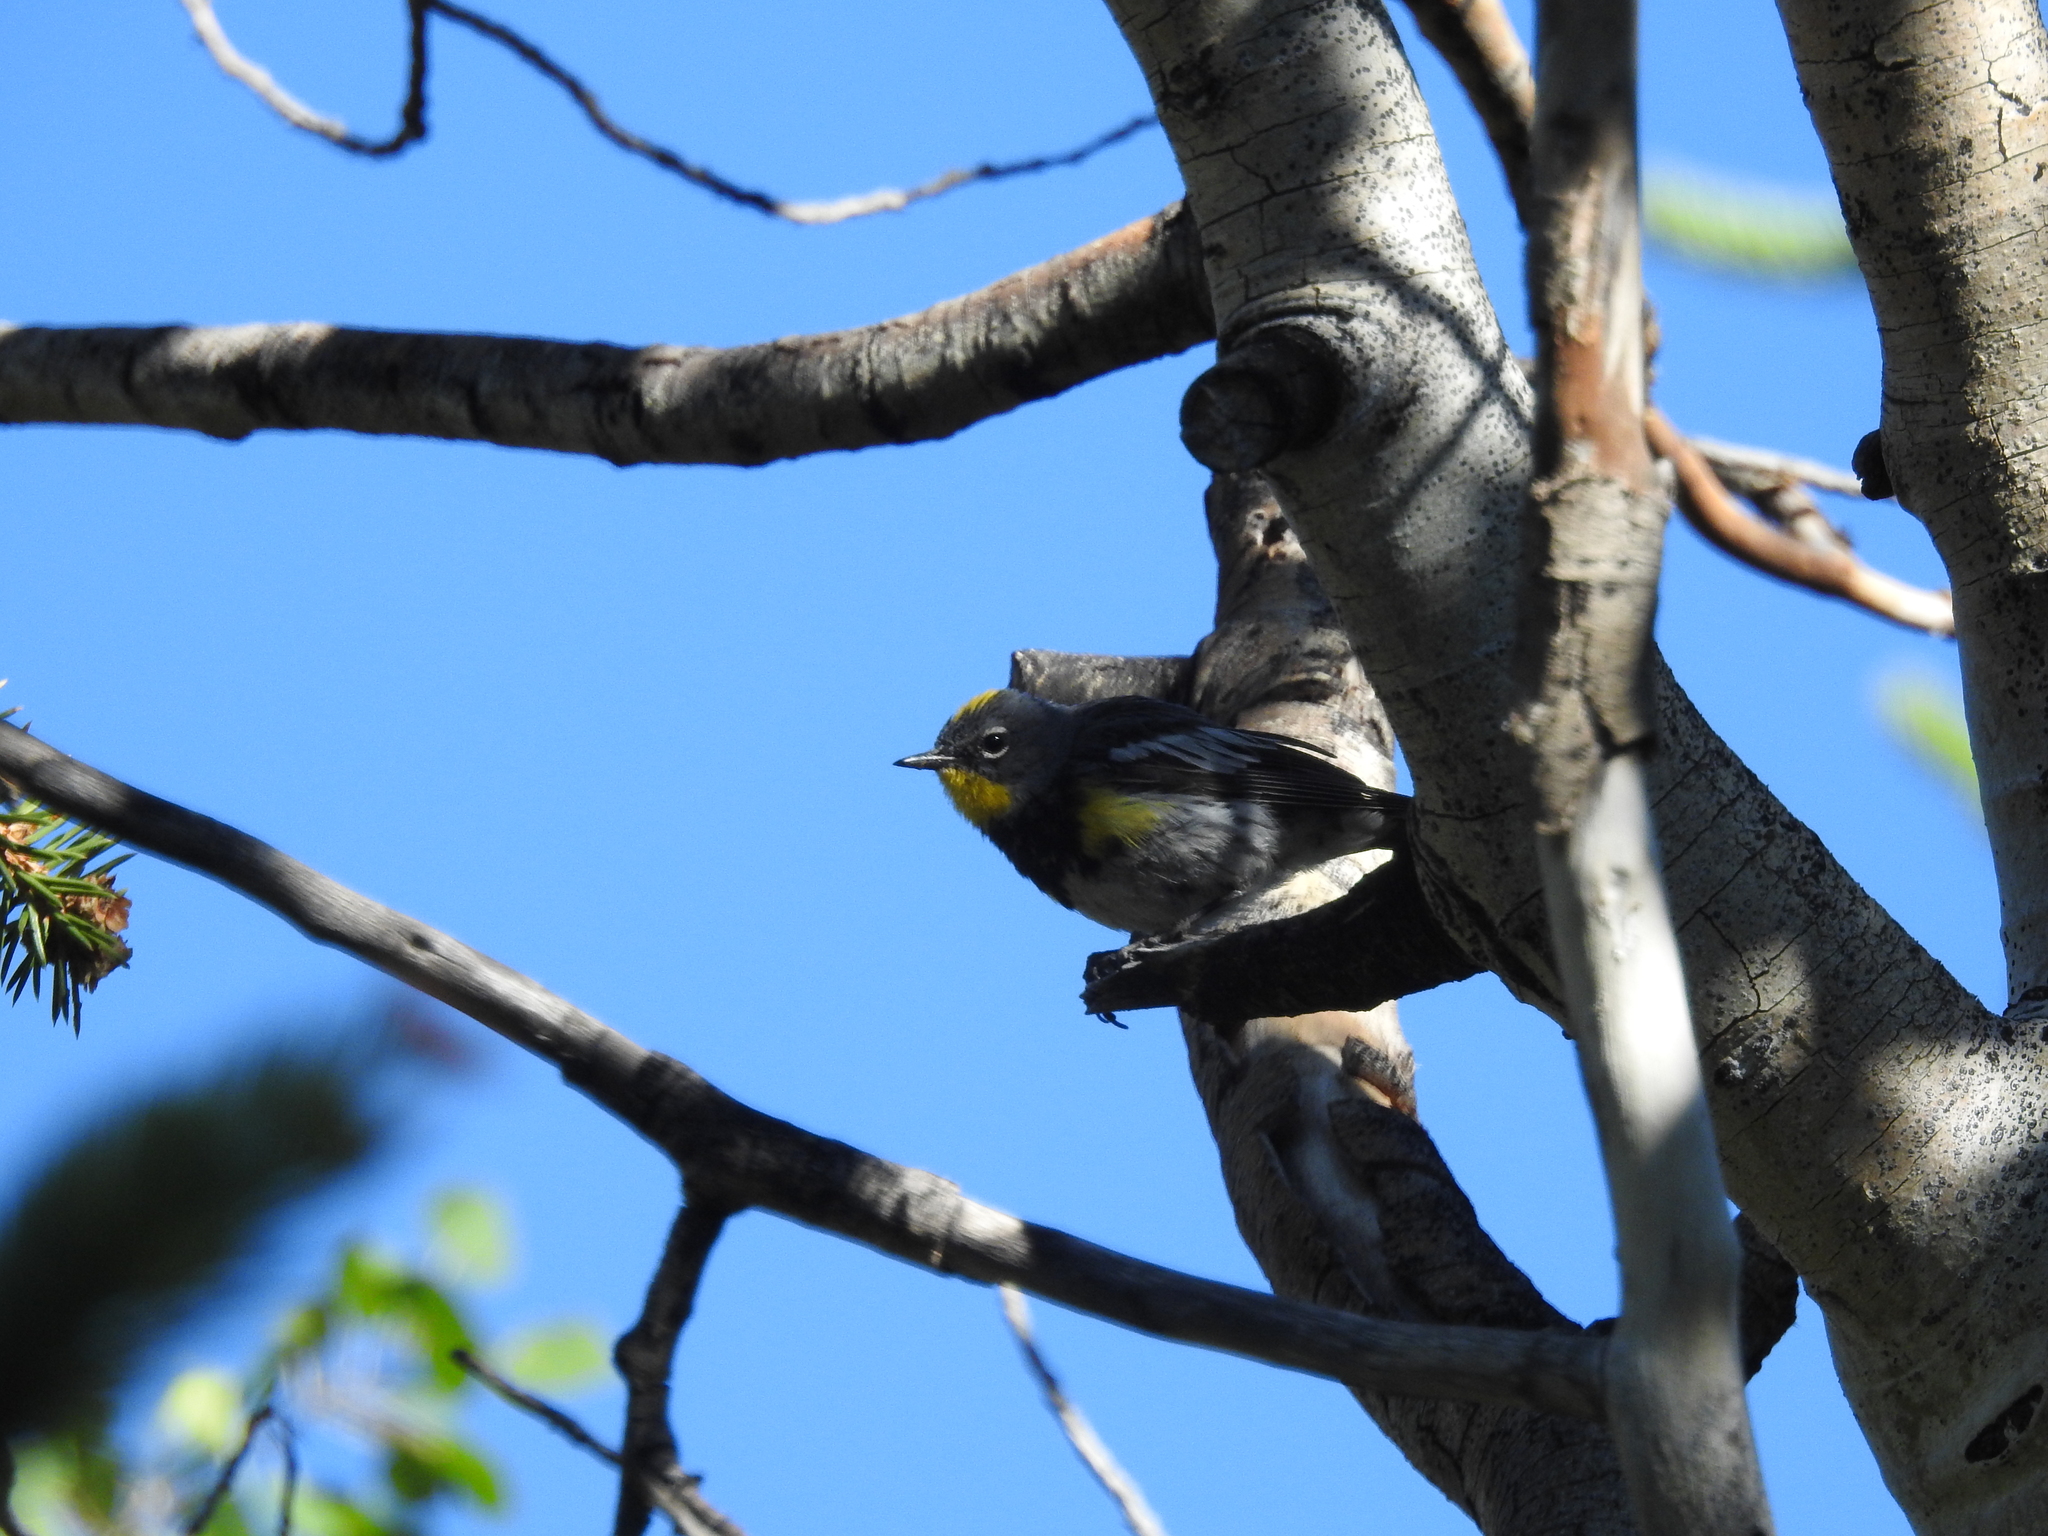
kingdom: Animalia
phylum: Chordata
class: Aves
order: Passeriformes
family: Parulidae
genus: Setophaga
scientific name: Setophaga coronata
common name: Myrtle warbler
